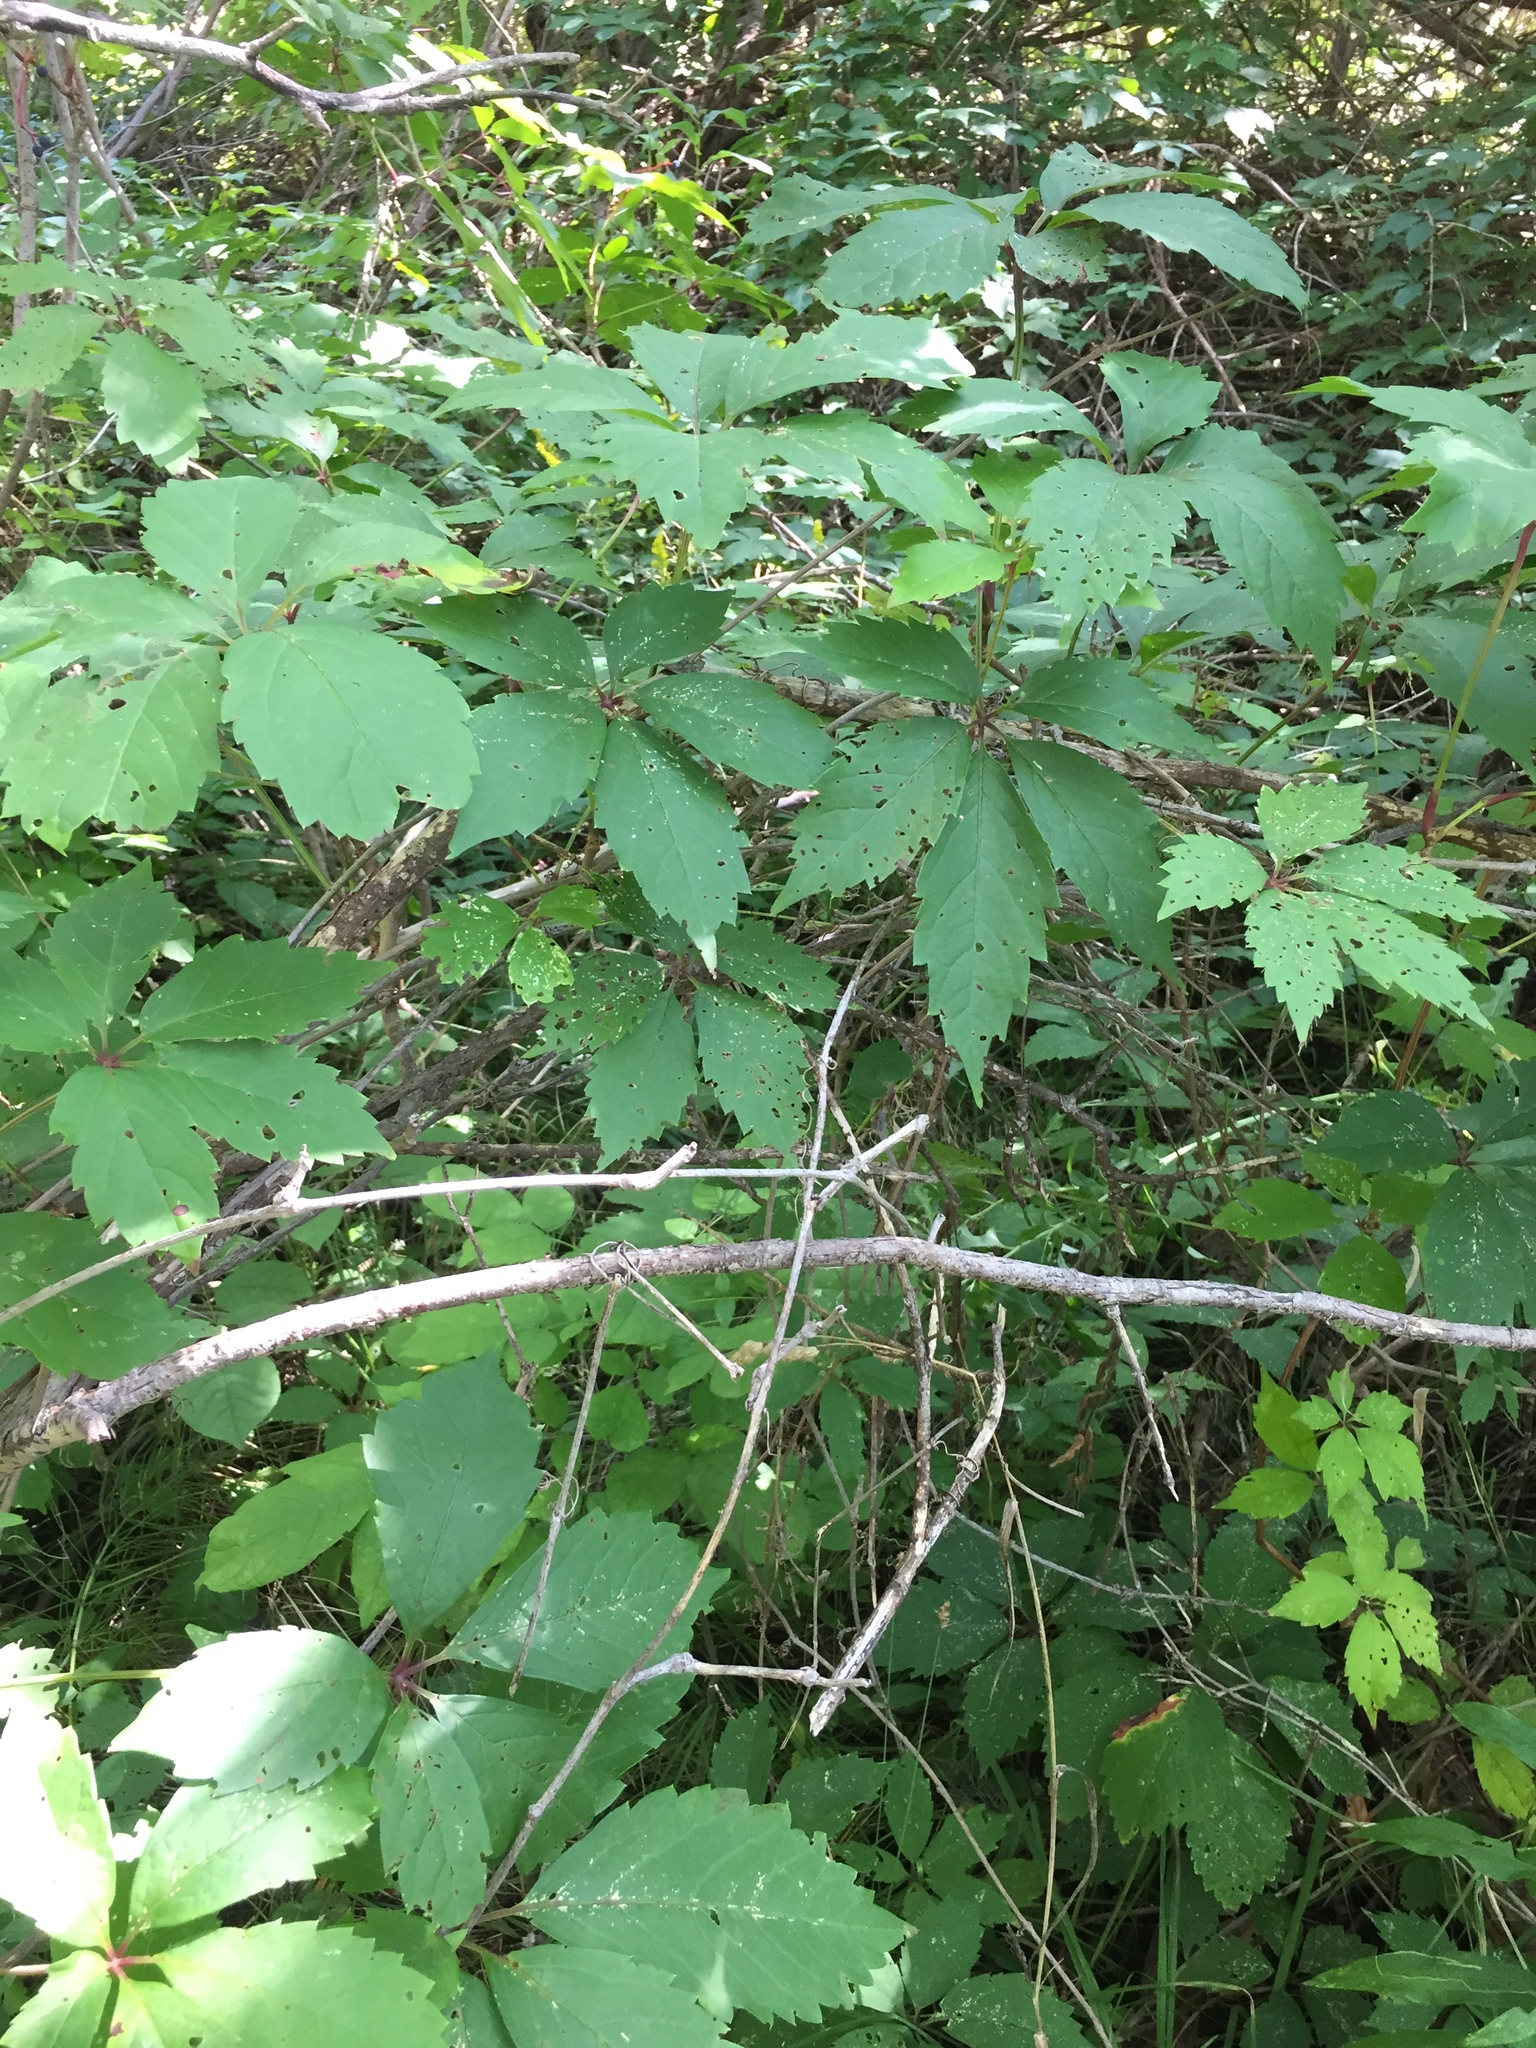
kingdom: Plantae
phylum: Tracheophyta
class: Magnoliopsida
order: Vitales
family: Vitaceae
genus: Parthenocissus
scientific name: Parthenocissus quinquefolia
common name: Virginia-creeper
